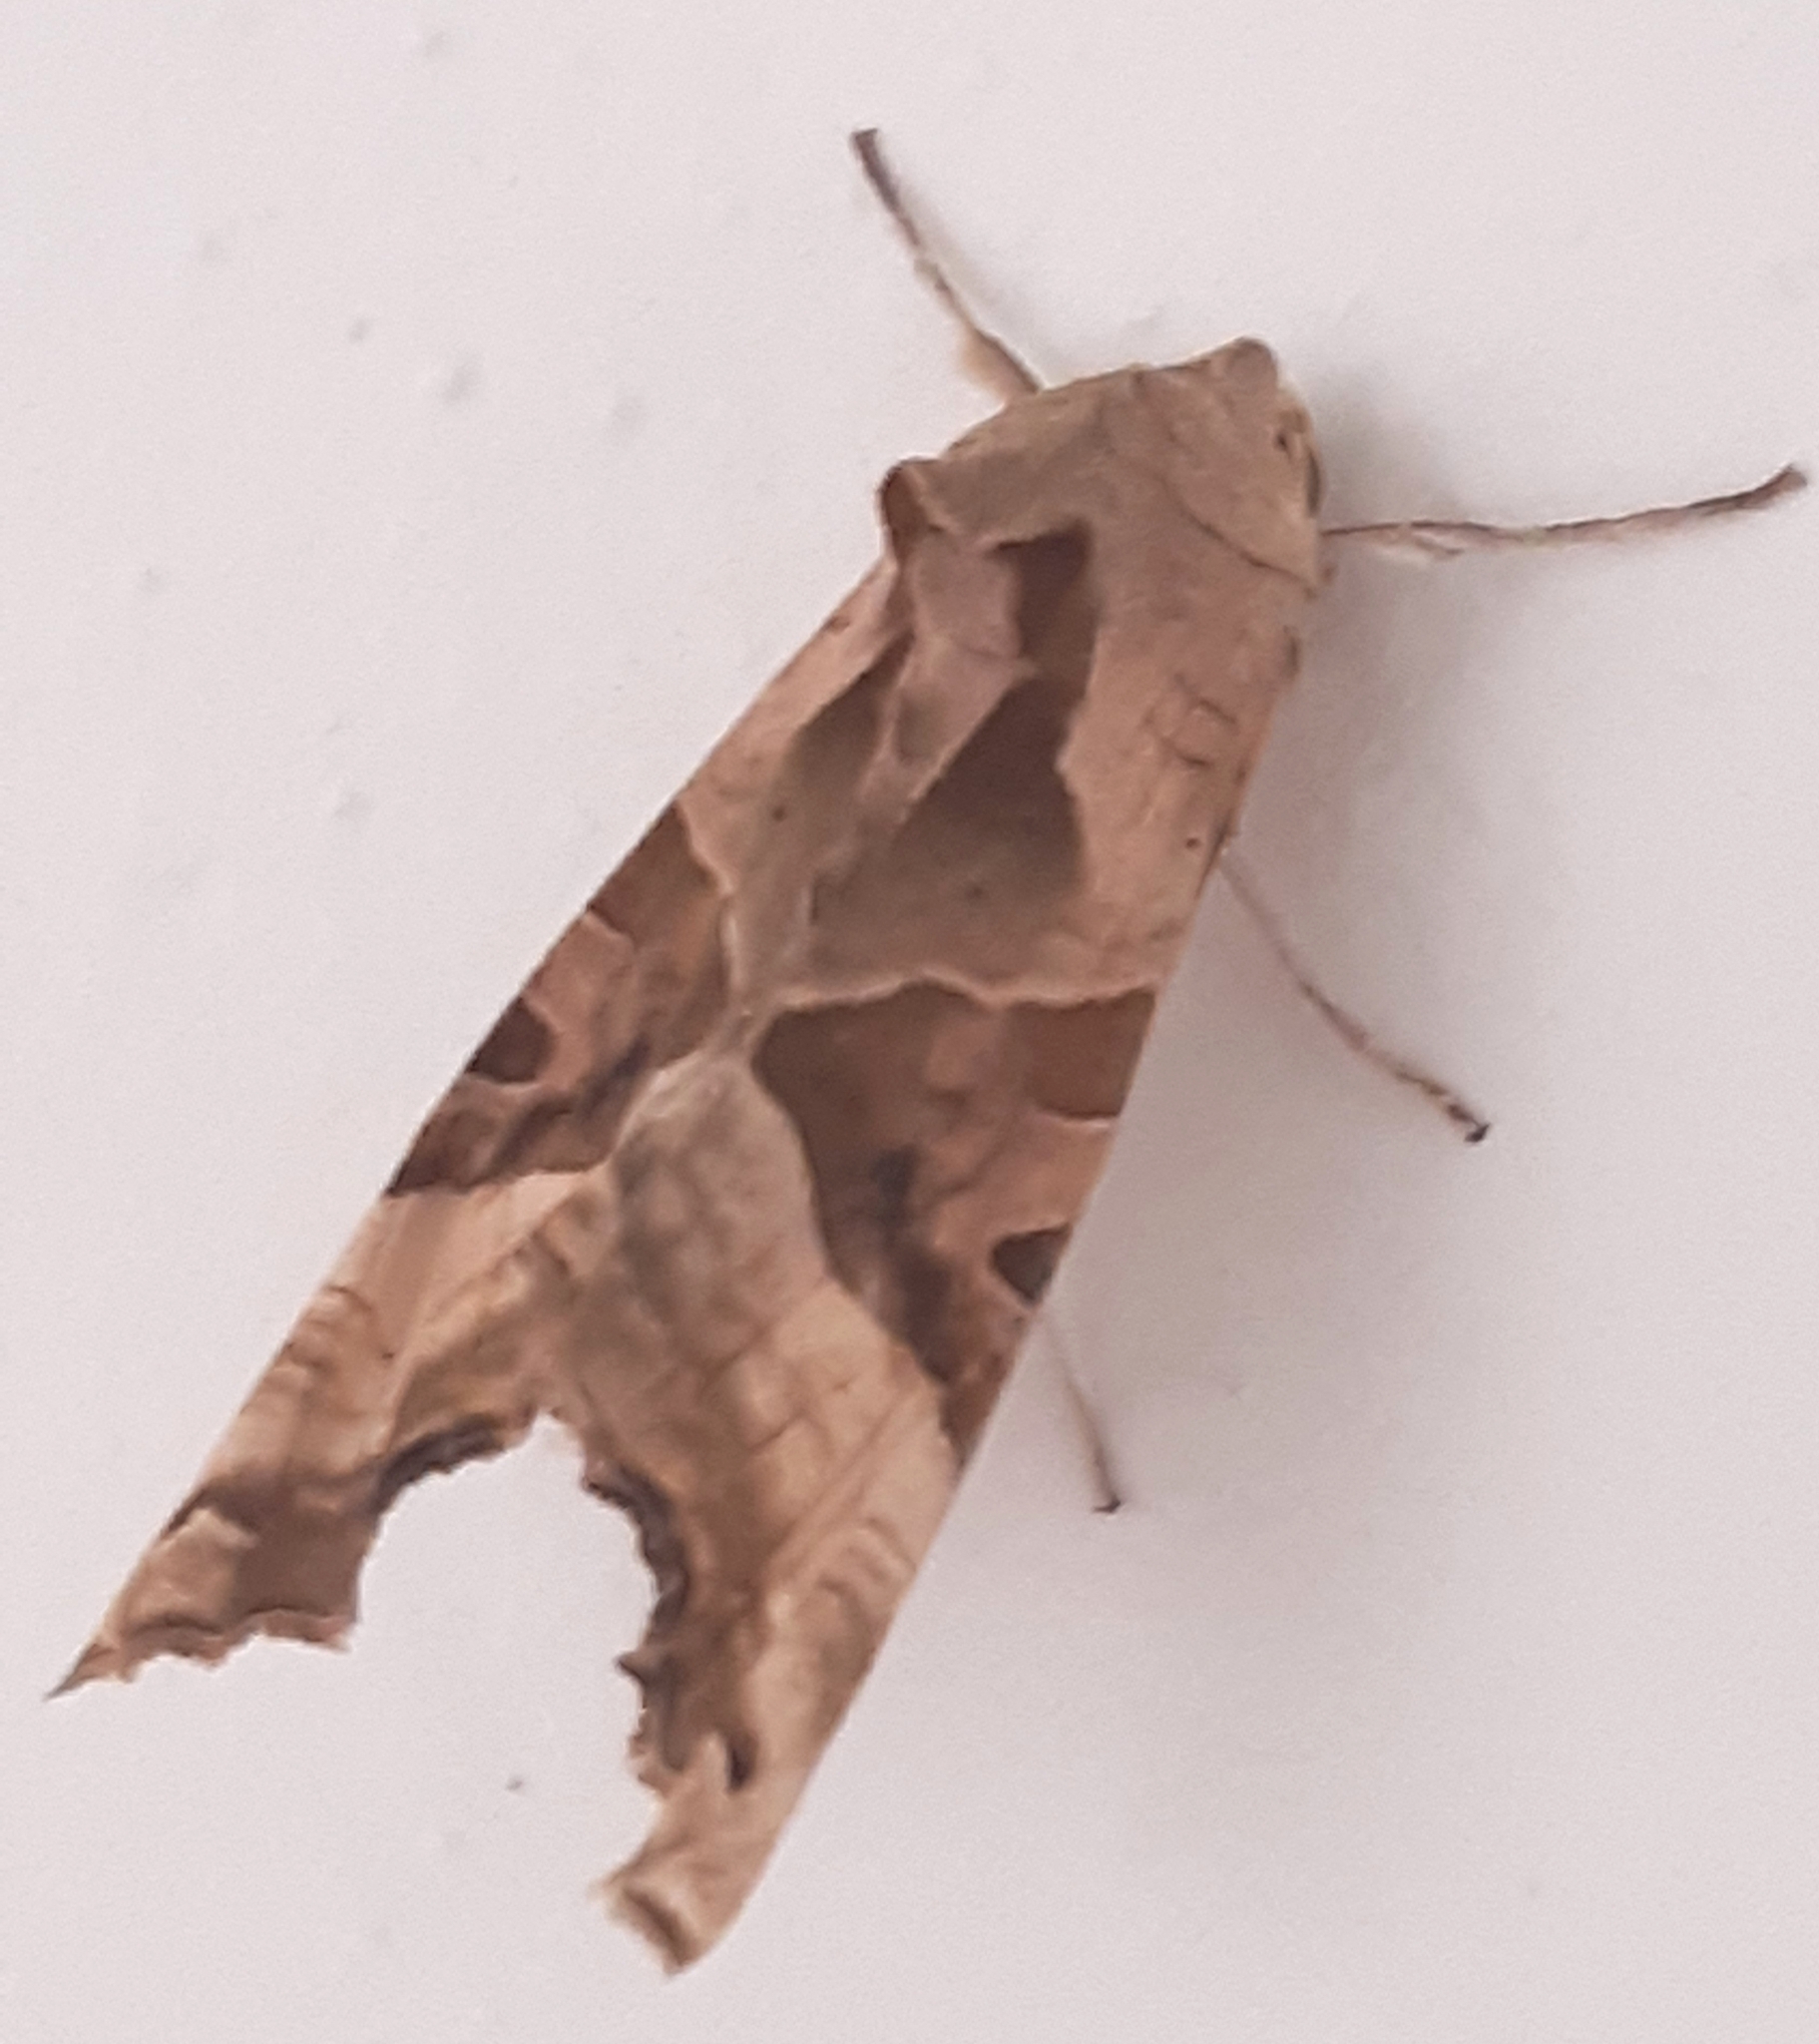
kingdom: Animalia
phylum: Arthropoda
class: Insecta
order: Lepidoptera
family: Noctuidae
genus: Phlogophora
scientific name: Phlogophora meticulosa
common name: Angle shades
